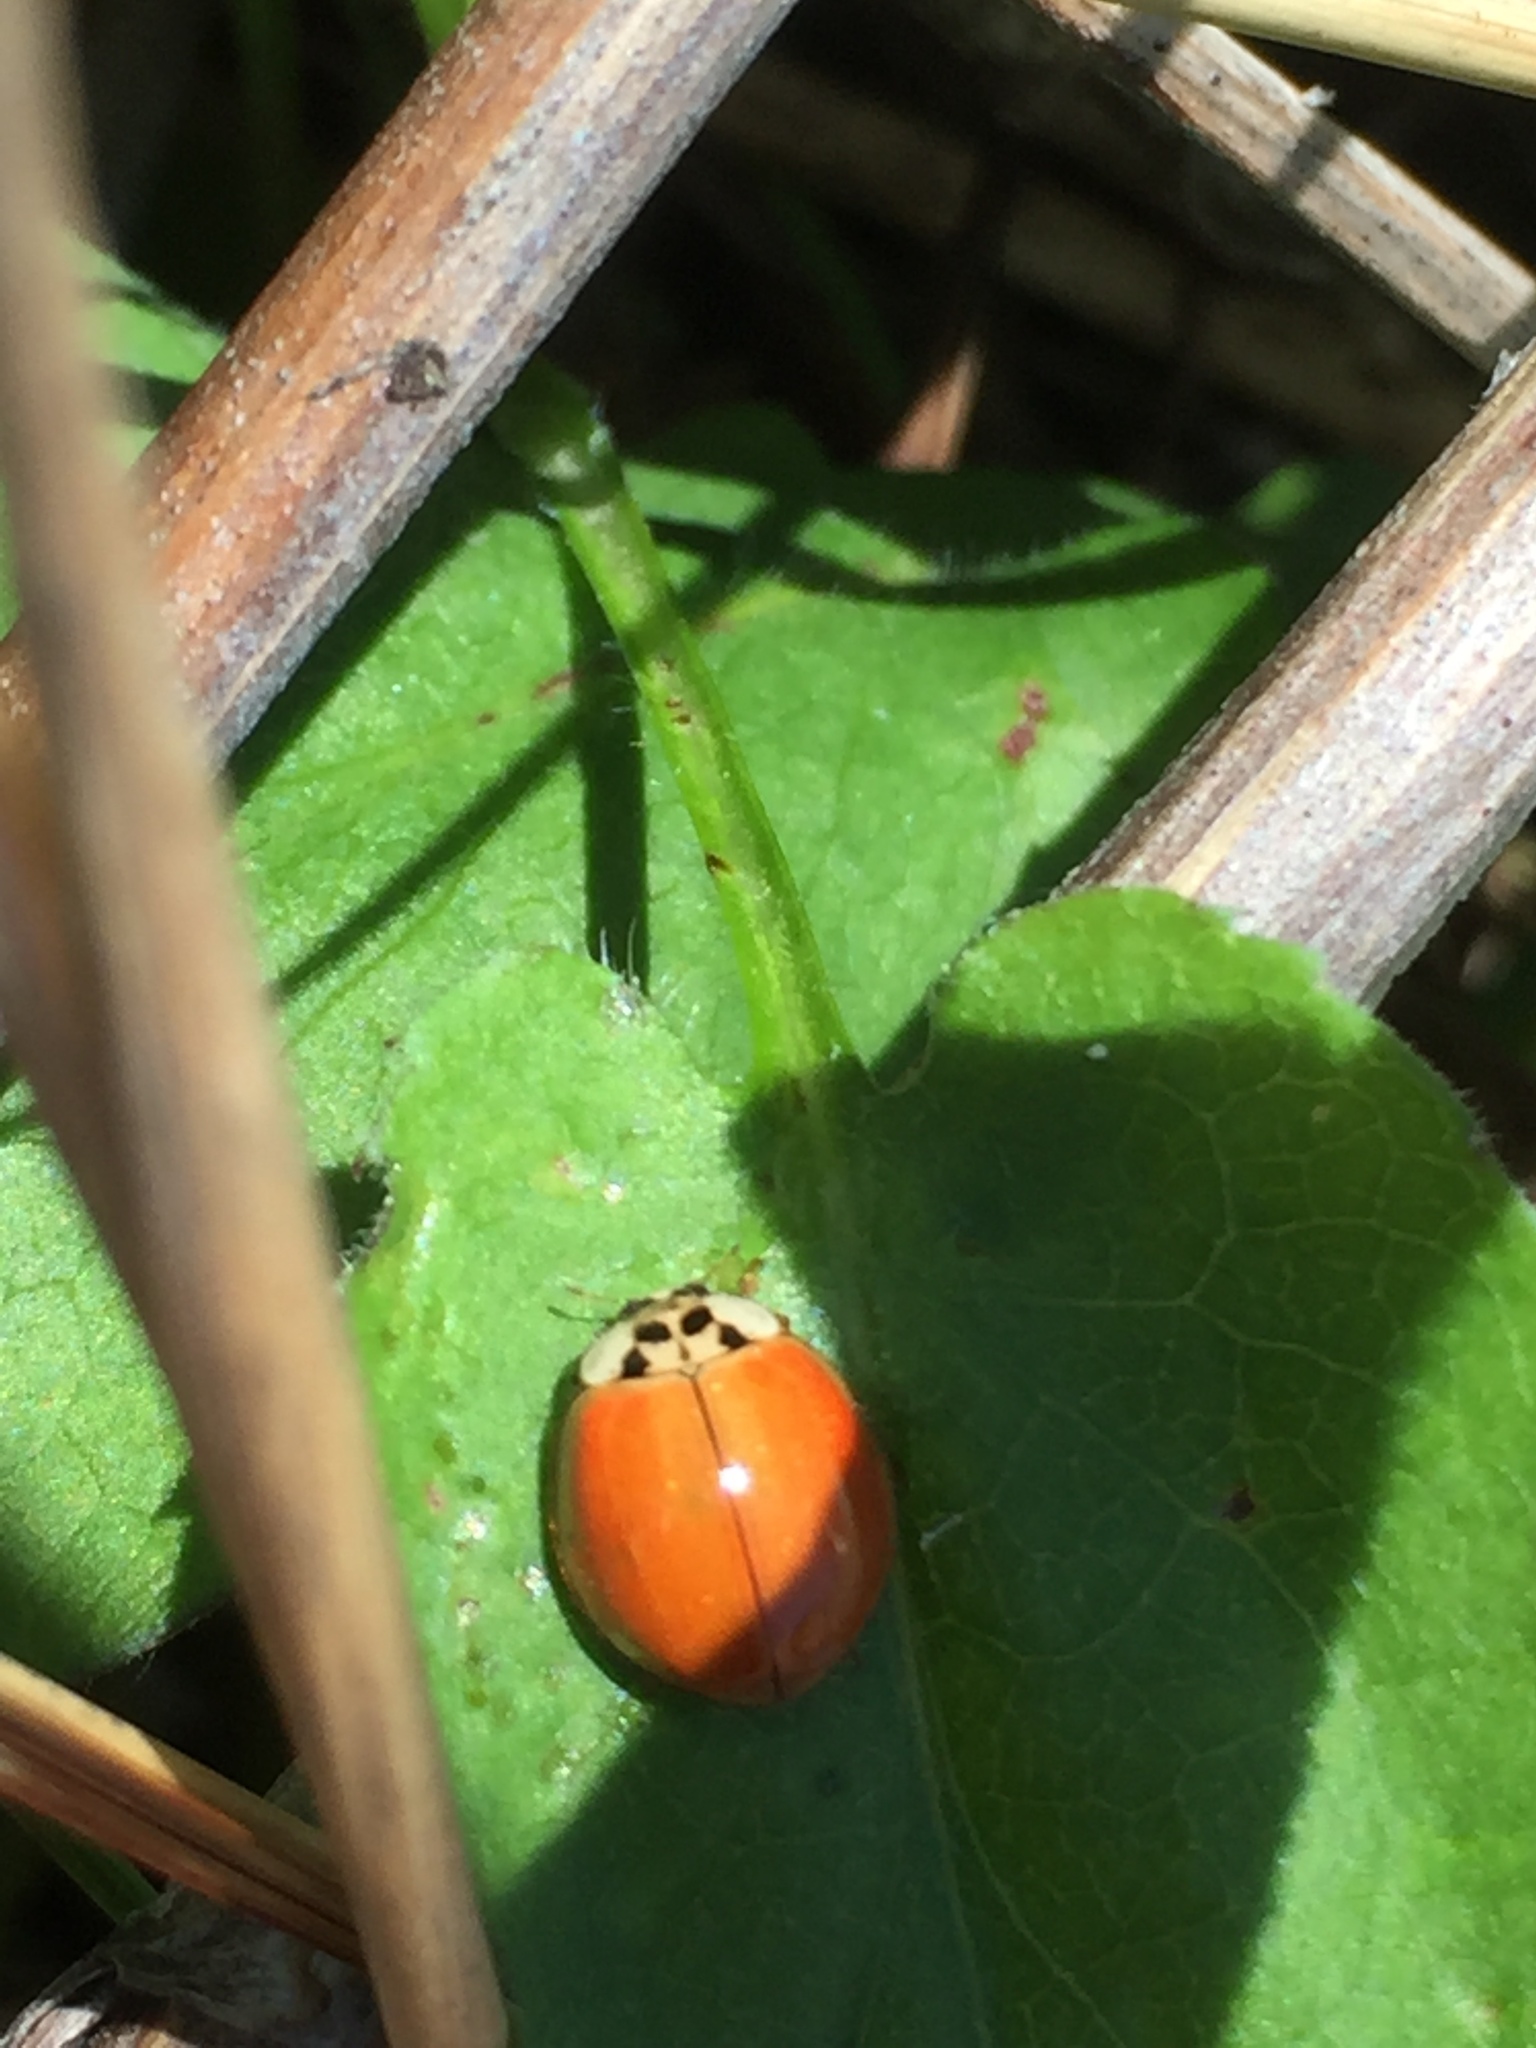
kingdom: Animalia
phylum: Arthropoda
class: Insecta
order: Coleoptera
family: Coccinellidae
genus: Harmonia
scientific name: Harmonia axyridis
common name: Harlequin ladybird
